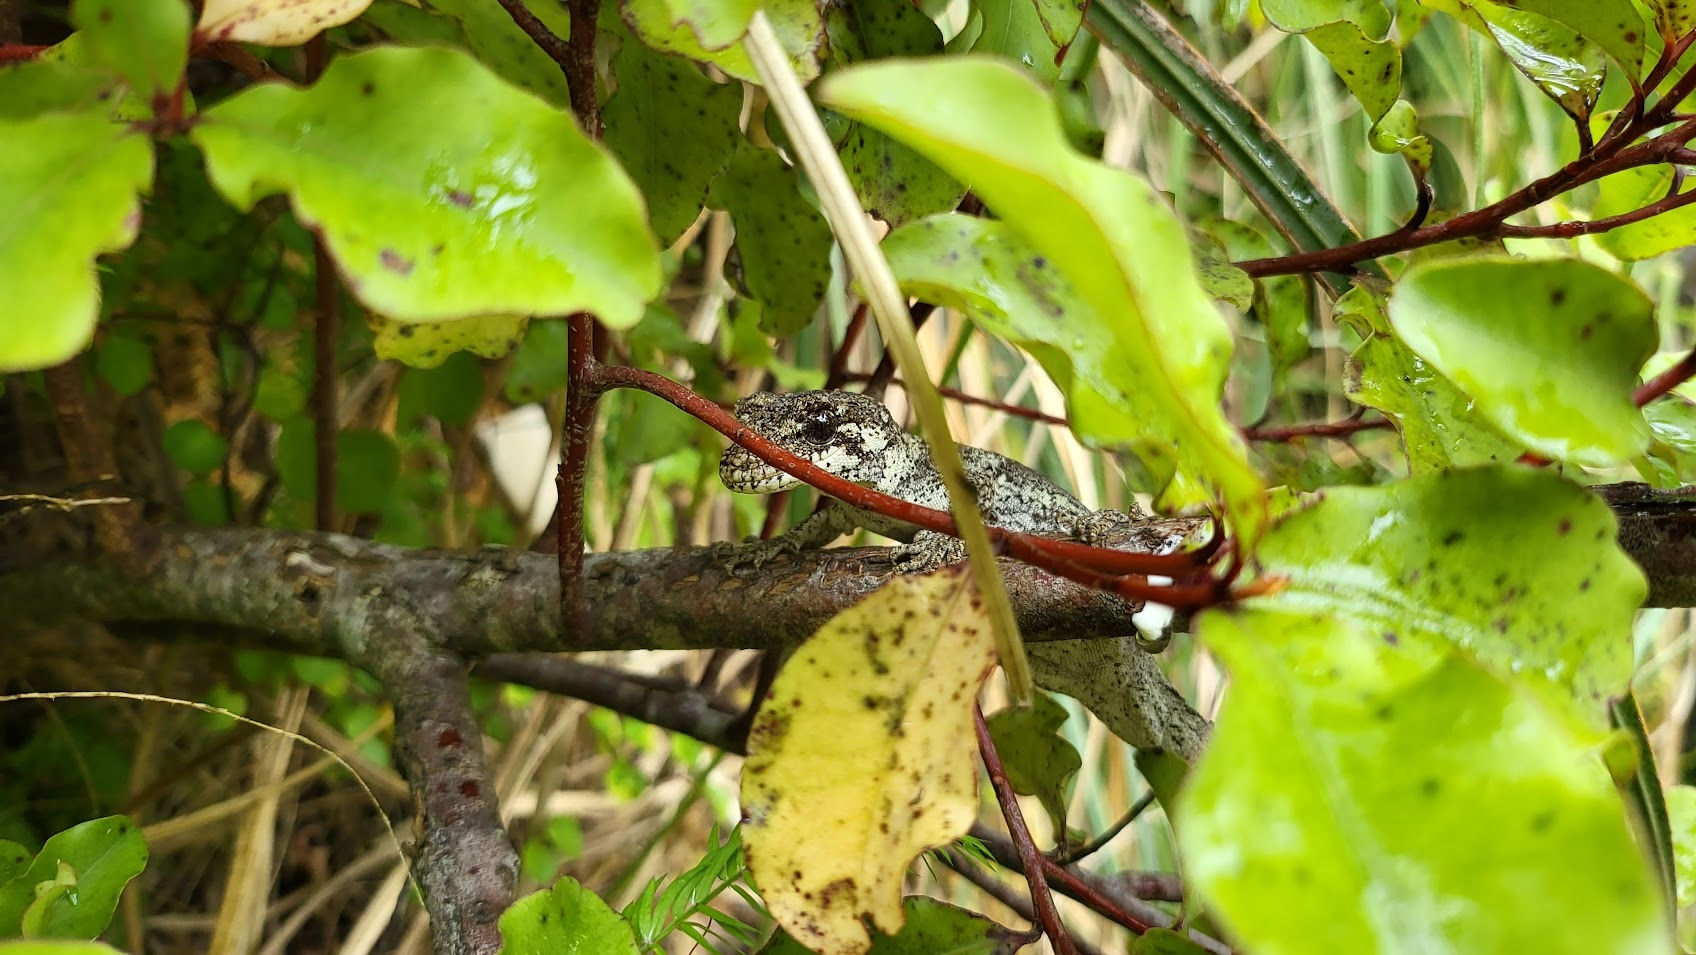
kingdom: Animalia
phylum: Chordata
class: Squamata
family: Diplodactylidae
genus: Mokopirirakau
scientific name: Mokopirirakau granulatus
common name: Forest gecko
